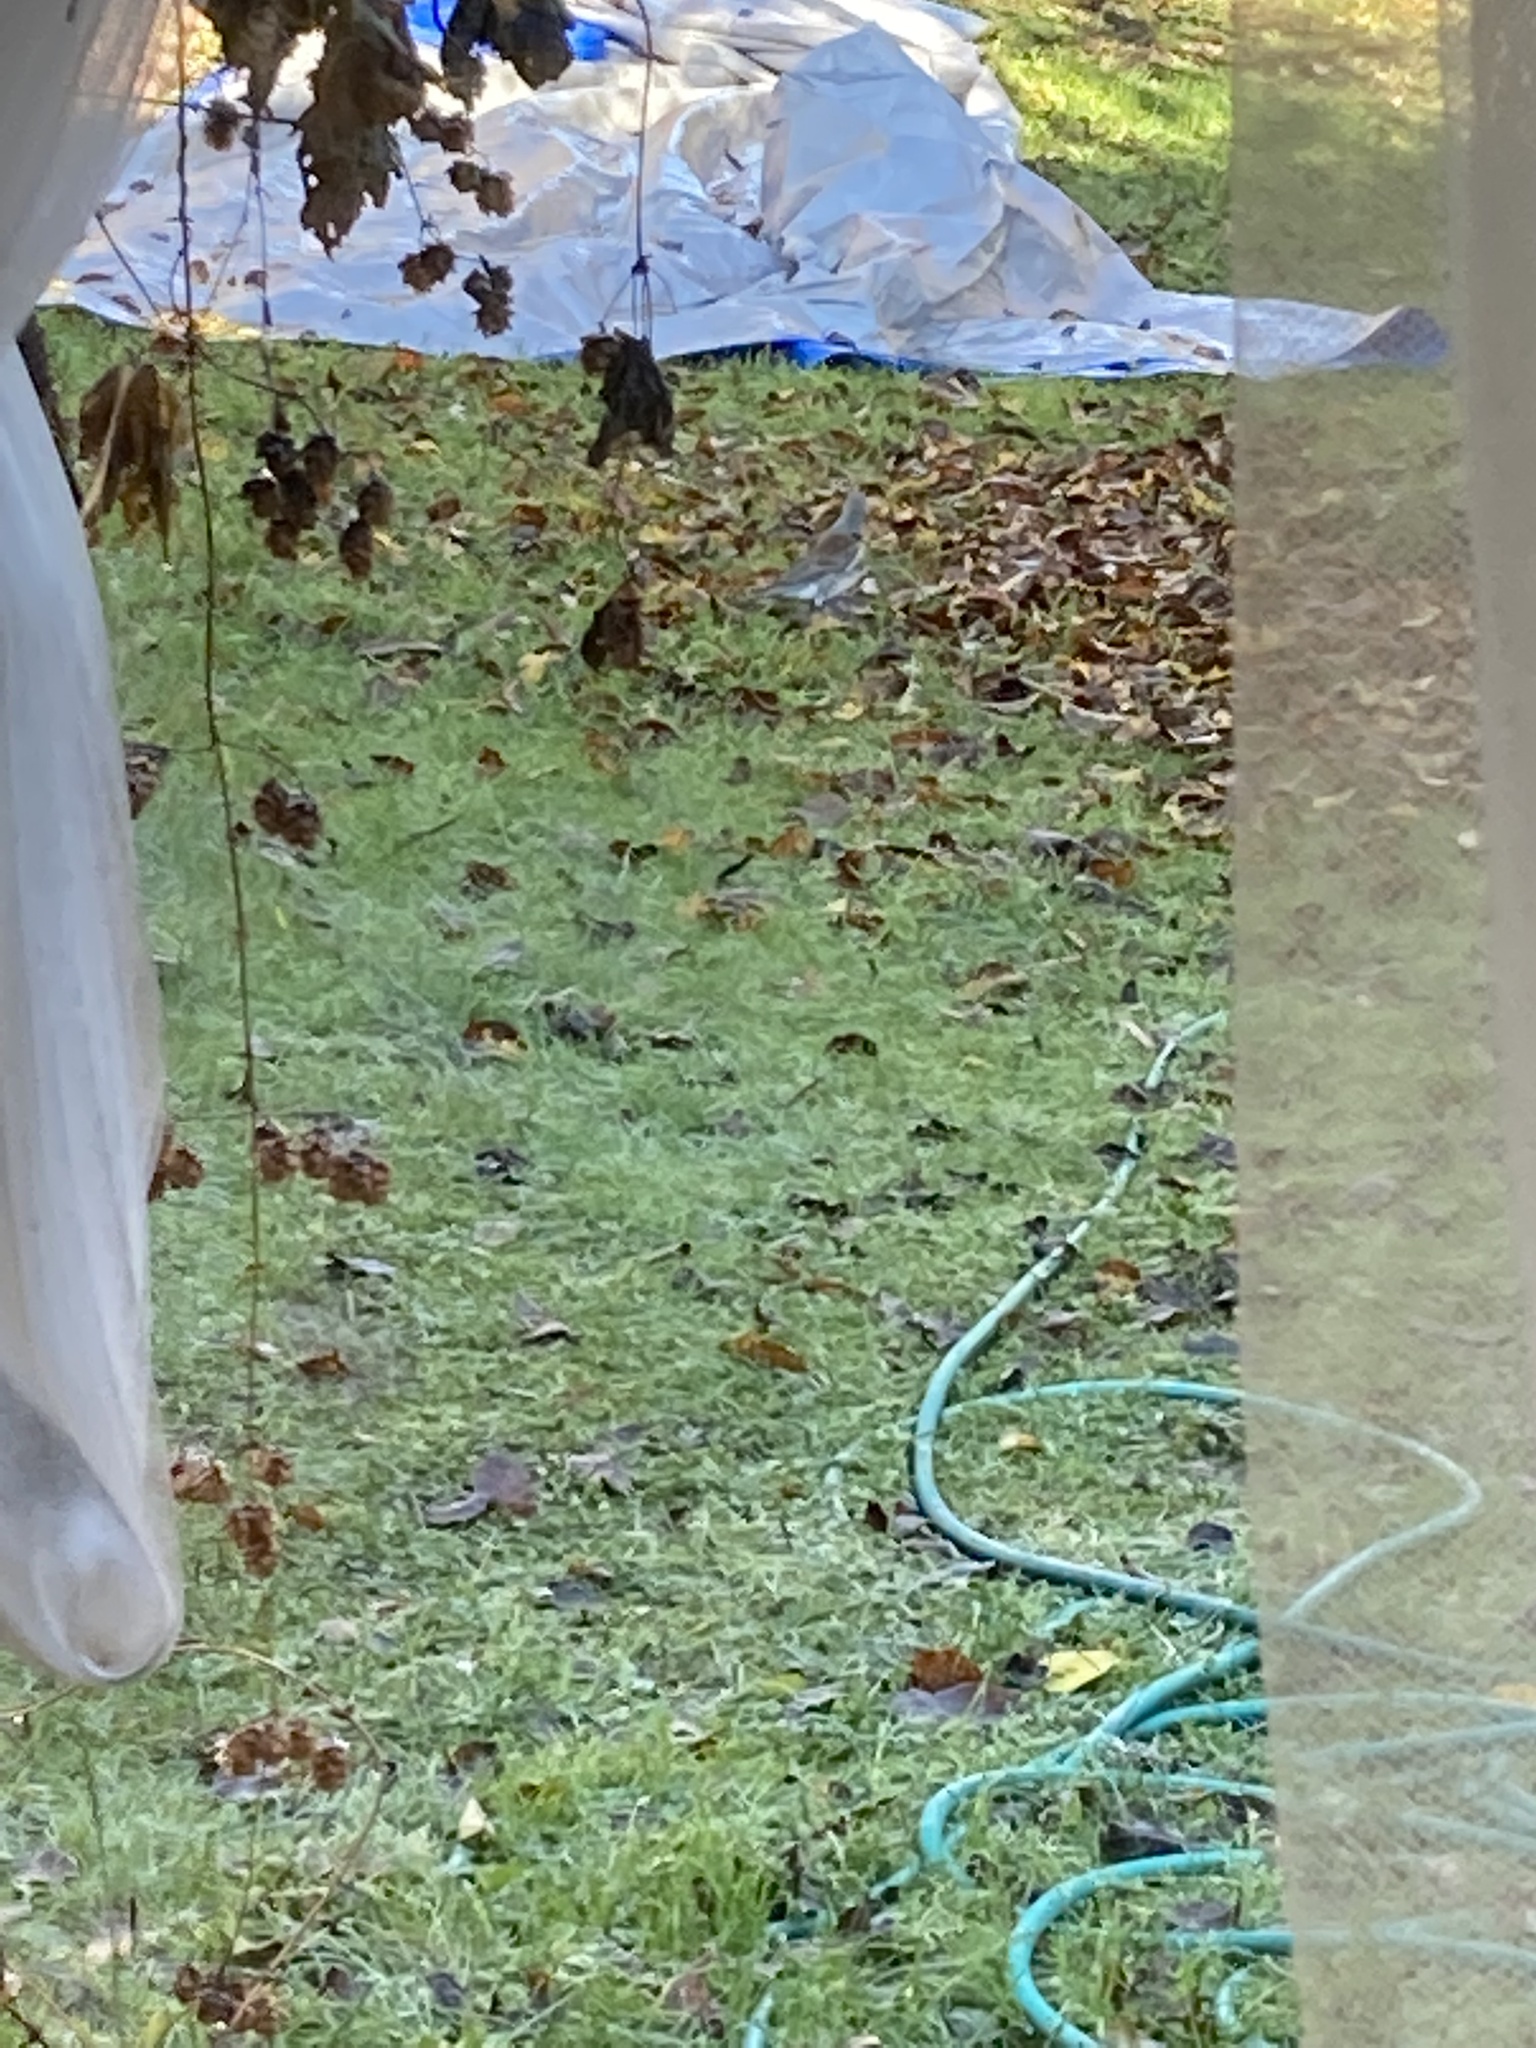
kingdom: Animalia
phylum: Chordata
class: Aves
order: Passeriformes
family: Turdidae
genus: Turdus
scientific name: Turdus pilaris
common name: Fieldfare
